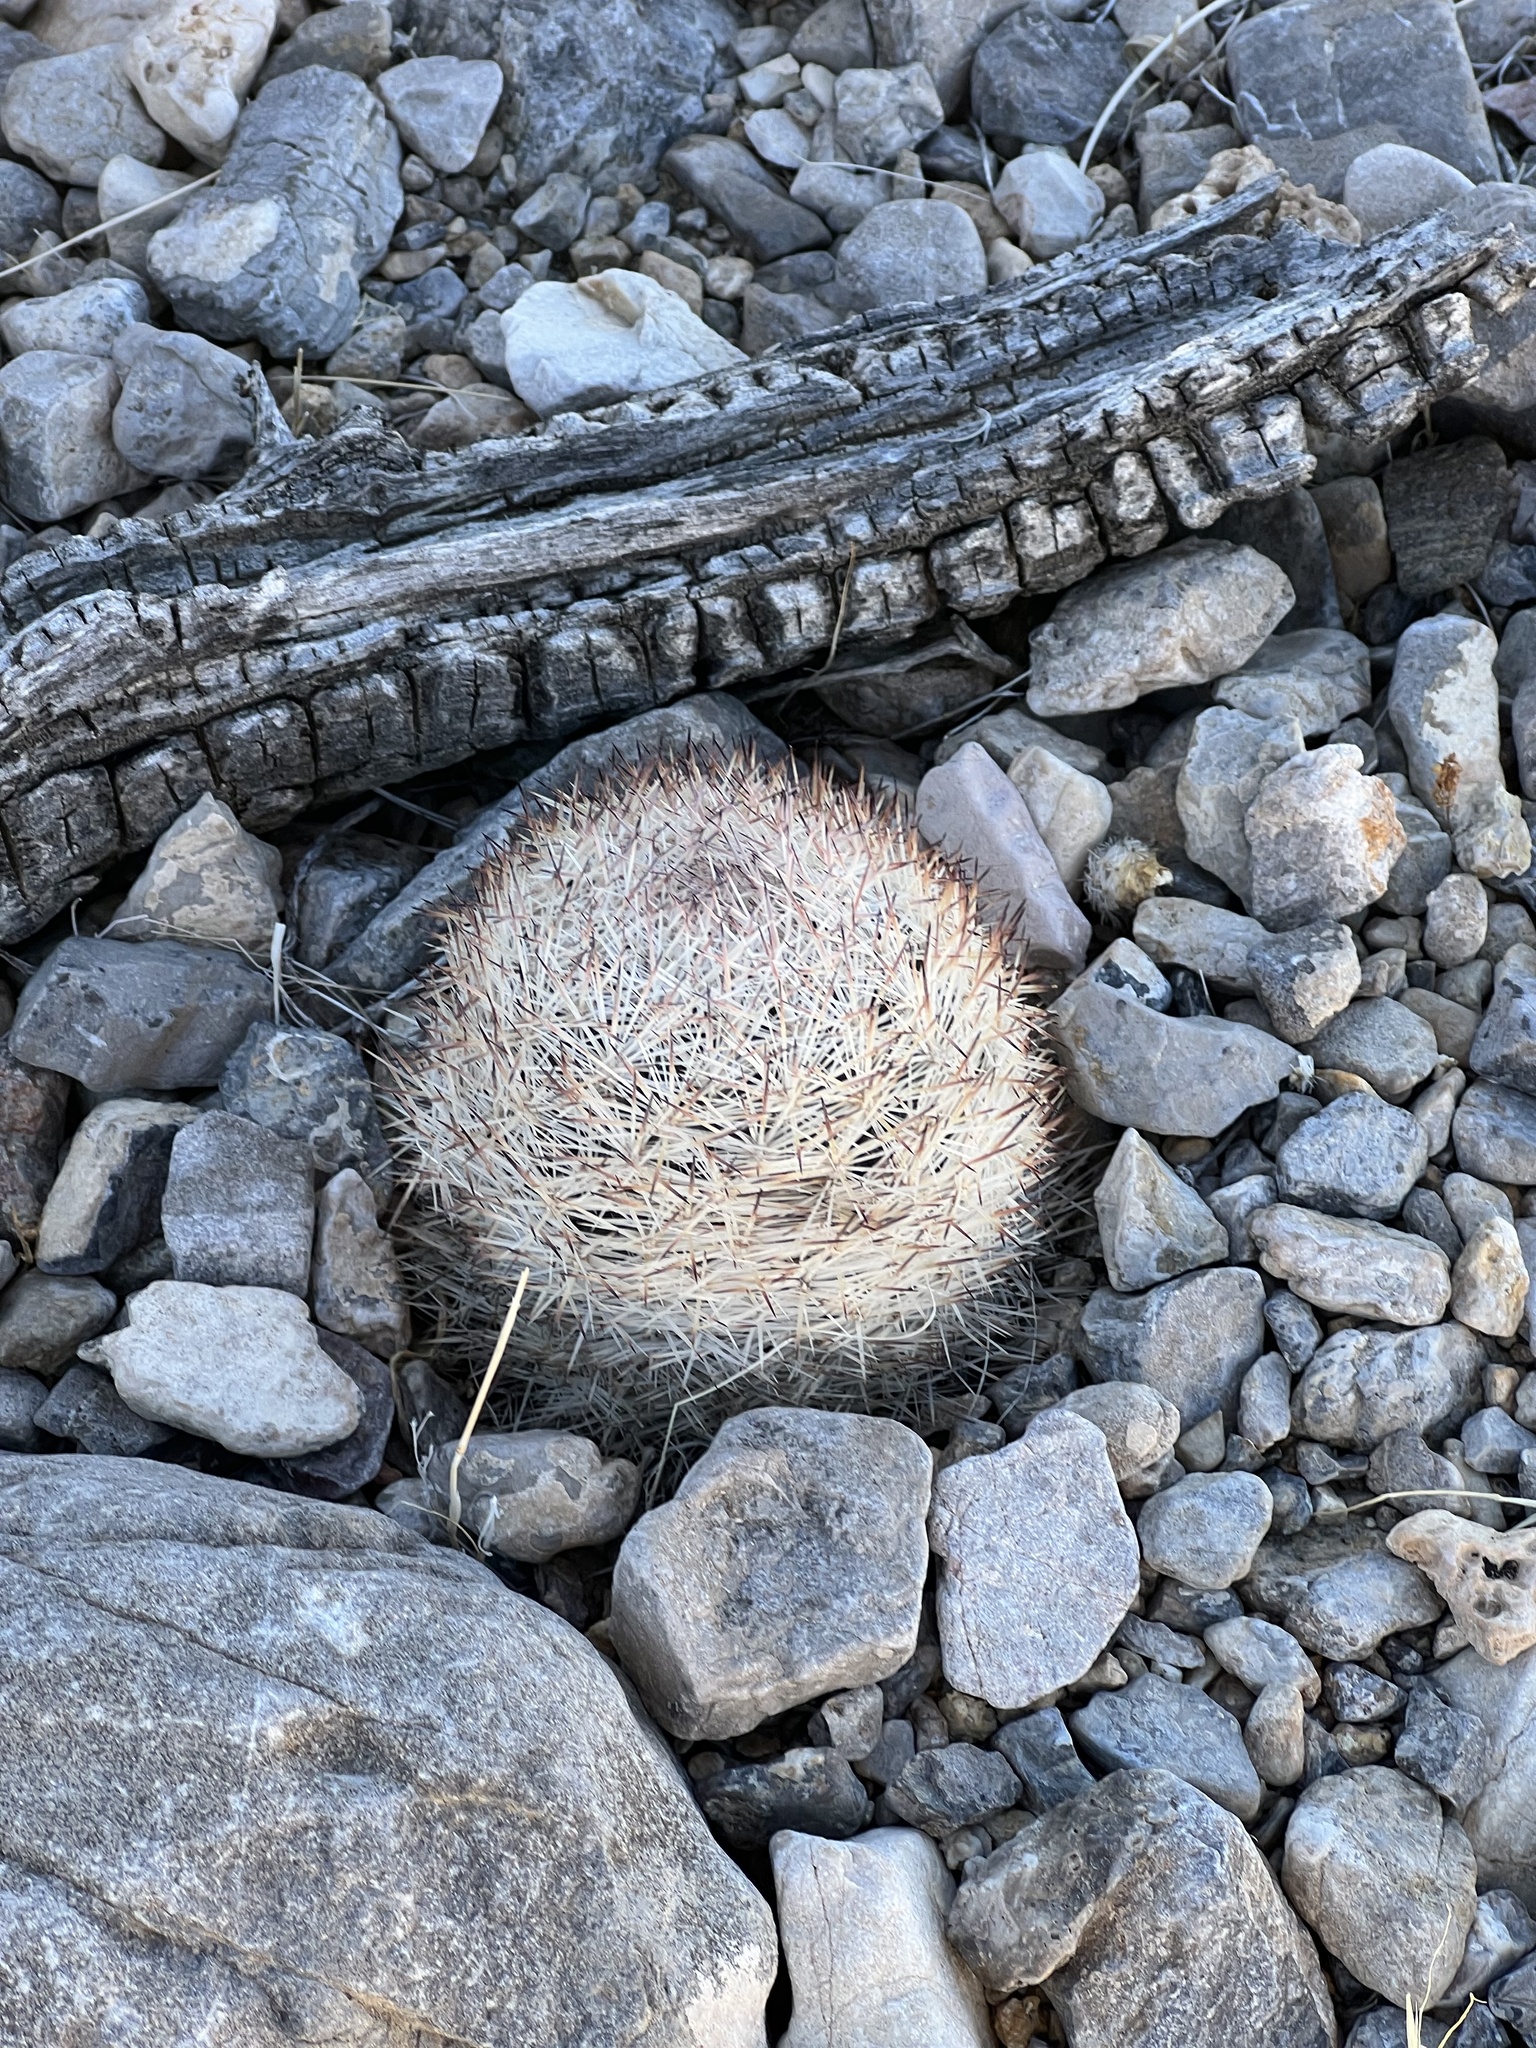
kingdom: Plantae
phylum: Tracheophyta
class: Magnoliopsida
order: Caryophyllales
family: Cactaceae
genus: Pelecyphora
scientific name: Pelecyphora dasyacantha
